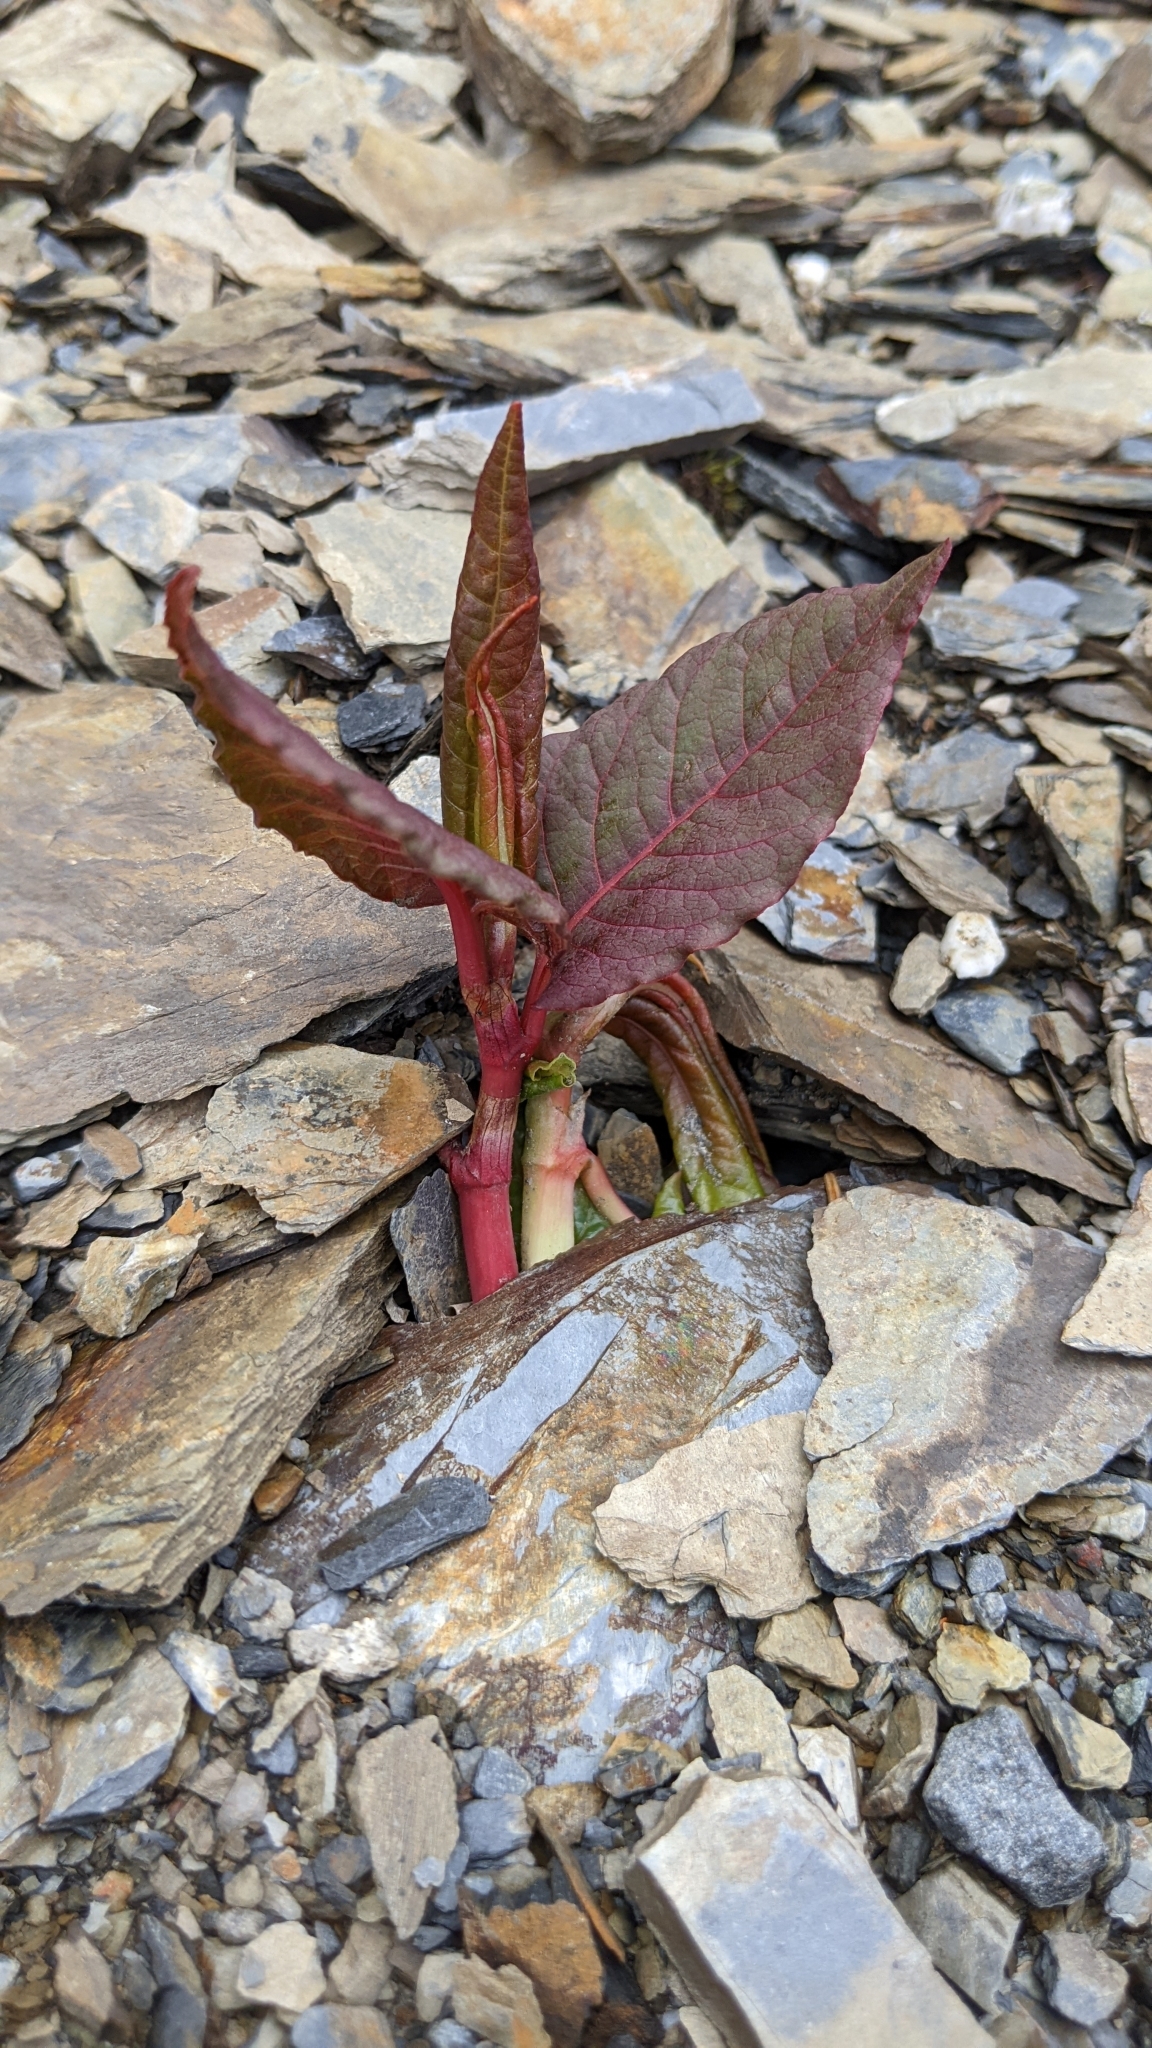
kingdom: Plantae
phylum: Tracheophyta
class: Magnoliopsida
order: Caryophyllales
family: Polygonaceae
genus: Reynoutria
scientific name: Reynoutria japonica
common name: Japanese knotweed
